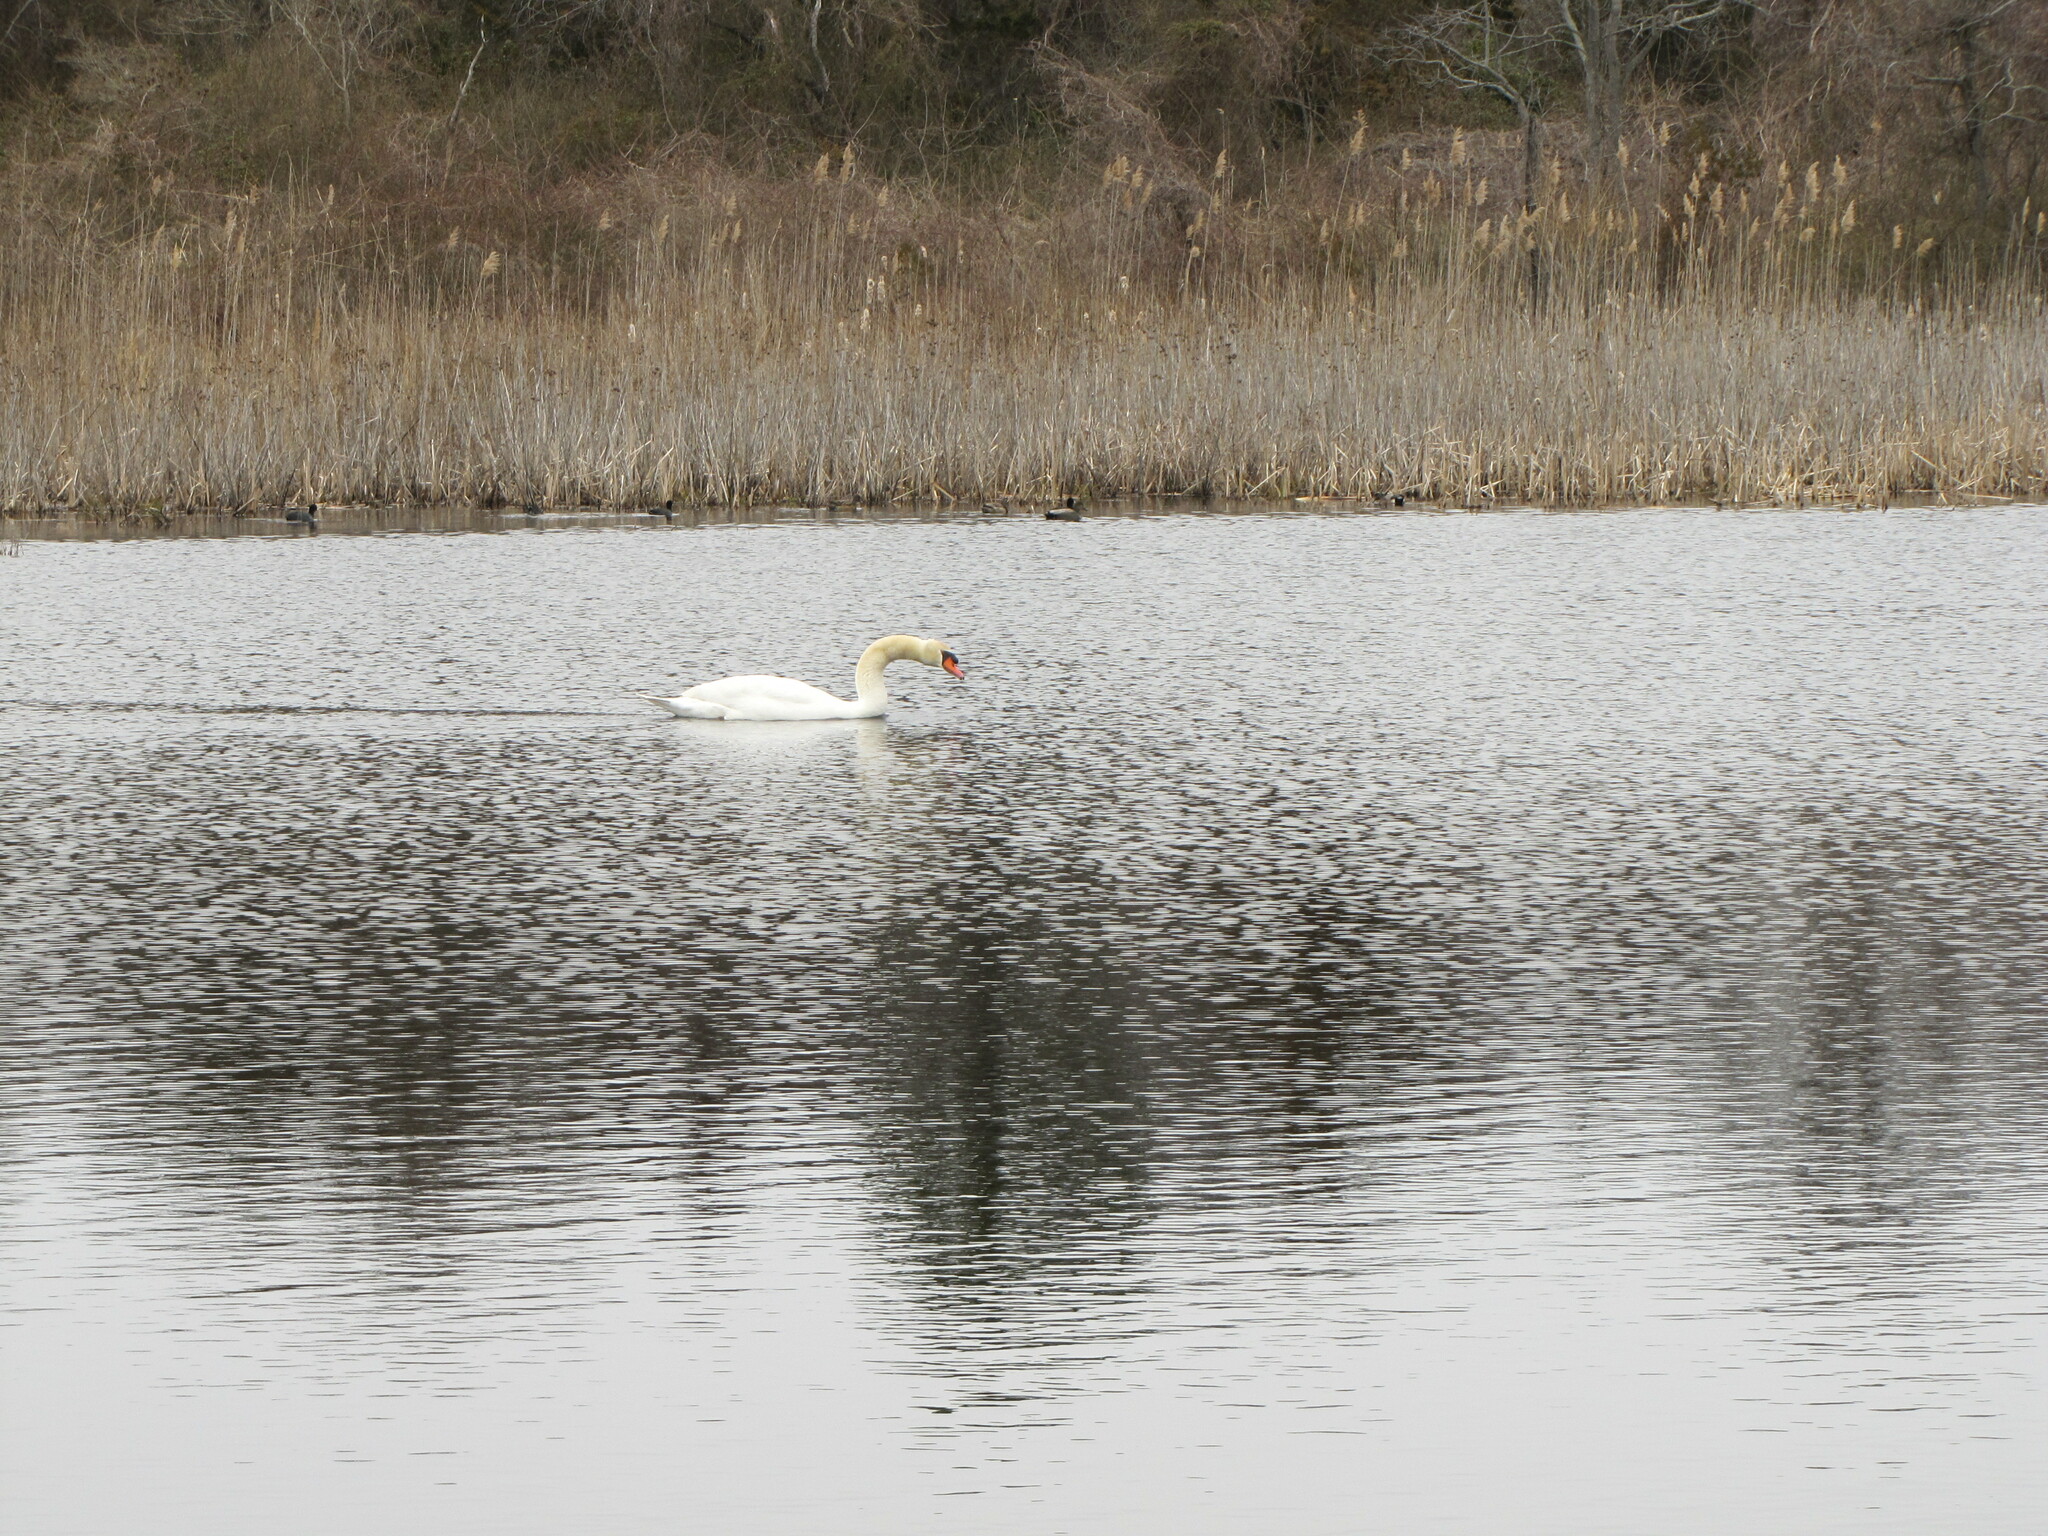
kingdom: Animalia
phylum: Chordata
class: Aves
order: Anseriformes
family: Anatidae
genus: Cygnus
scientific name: Cygnus olor
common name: Mute swan
